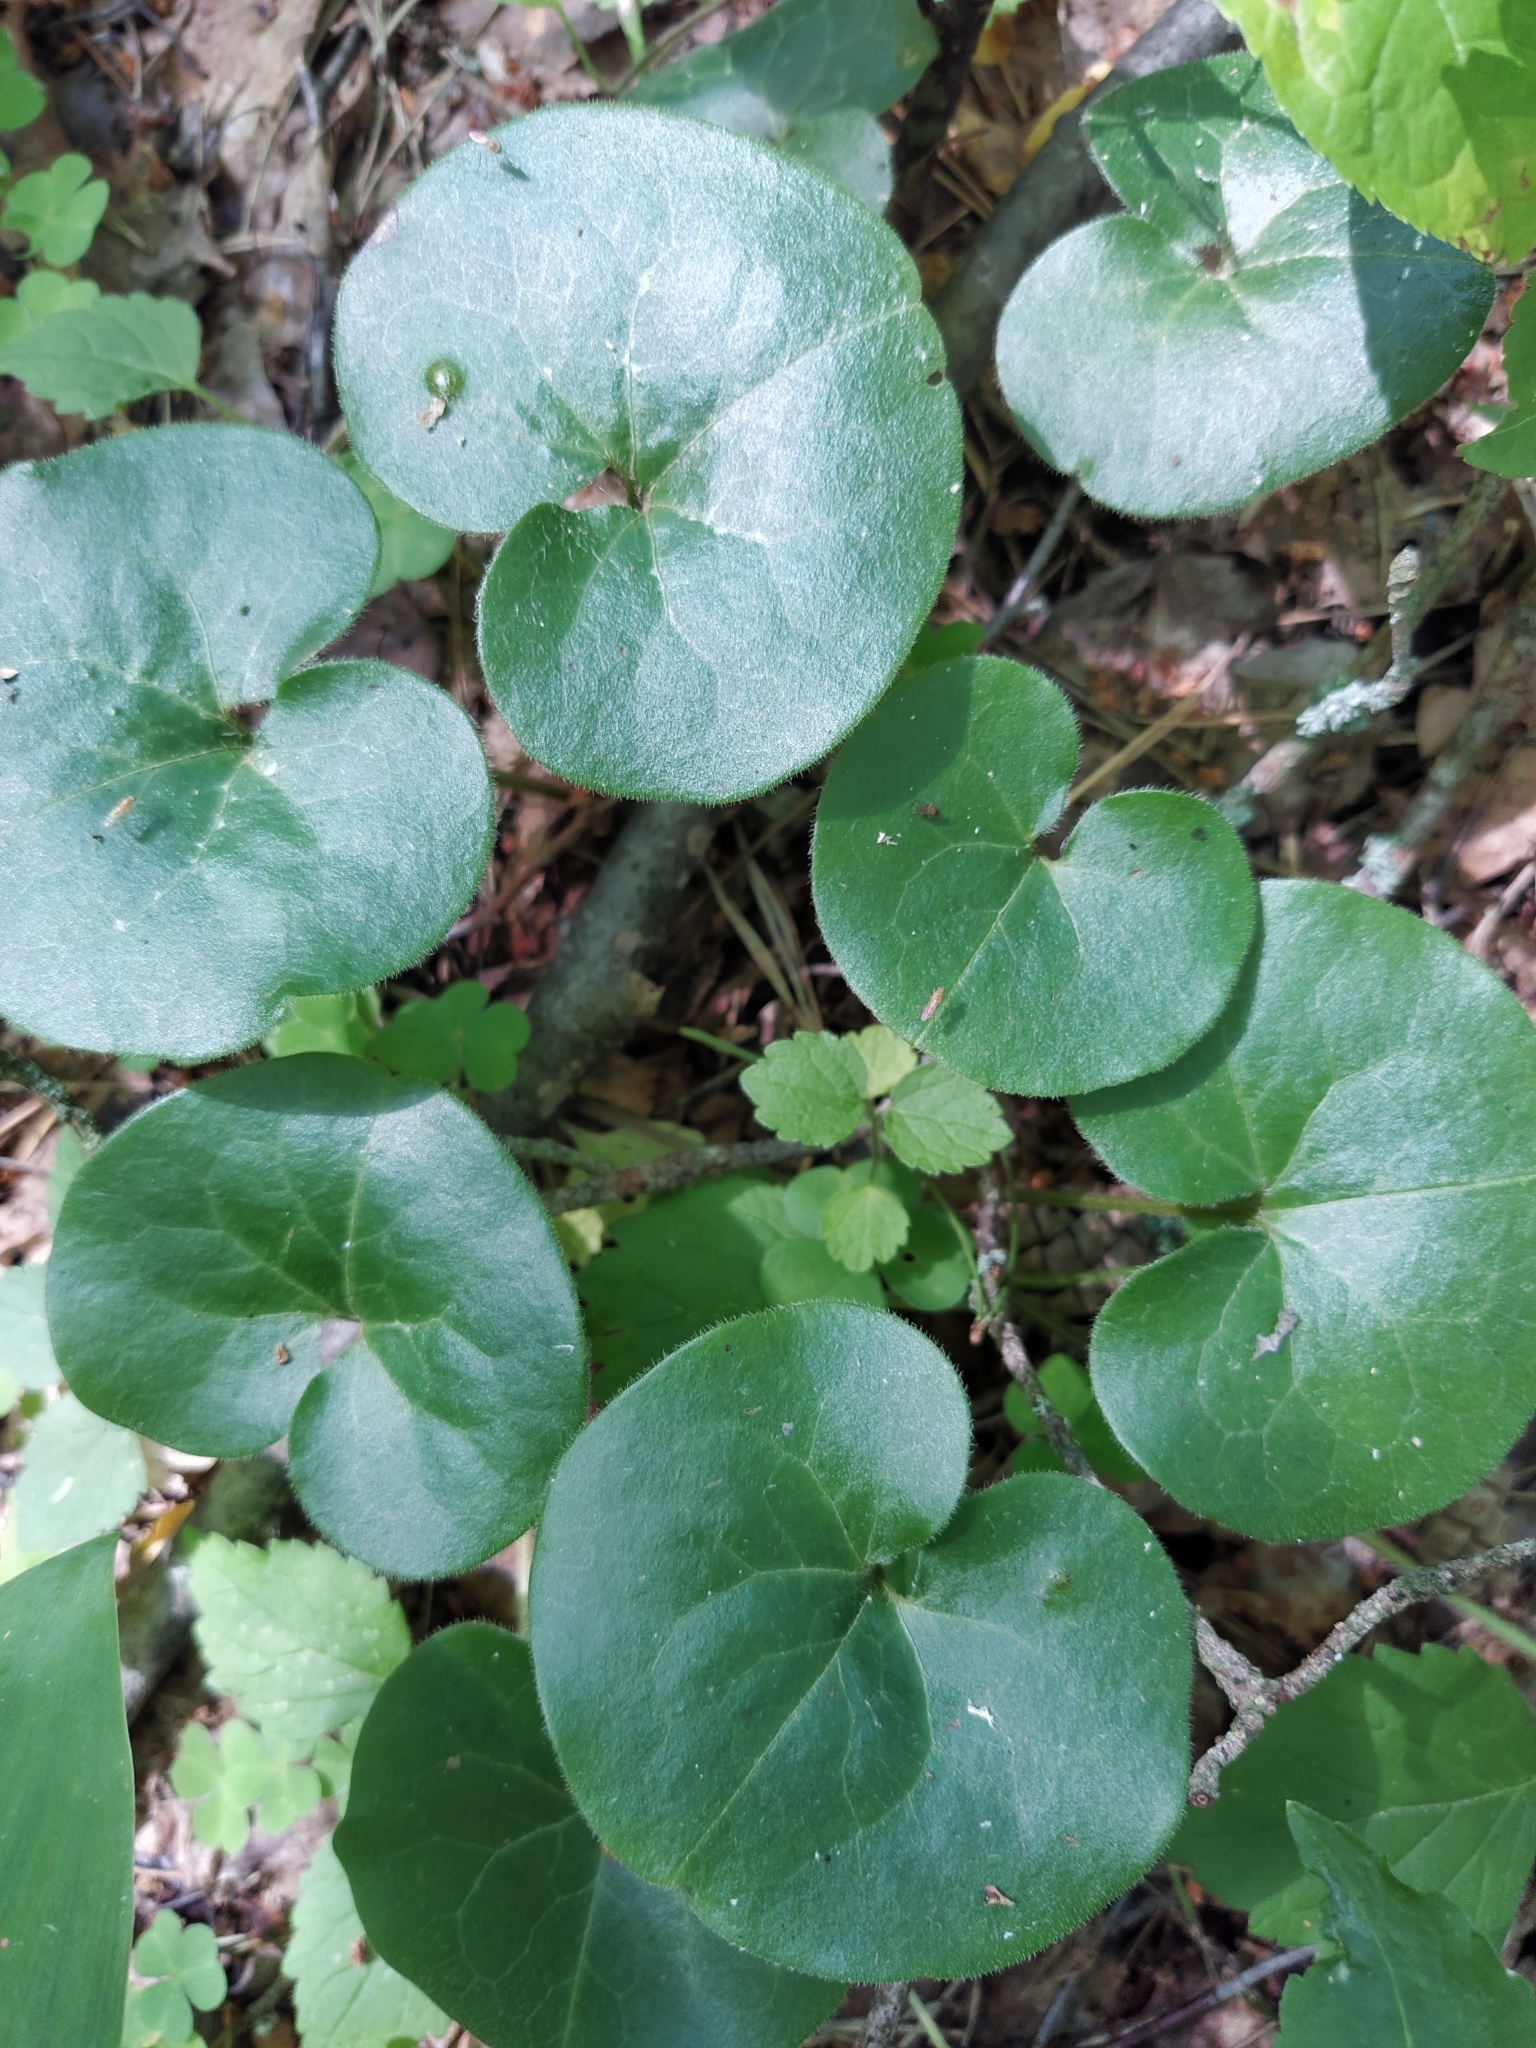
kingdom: Plantae
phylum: Tracheophyta
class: Magnoliopsida
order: Piperales
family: Aristolochiaceae
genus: Asarum
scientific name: Asarum europaeum
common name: Asarabacca
